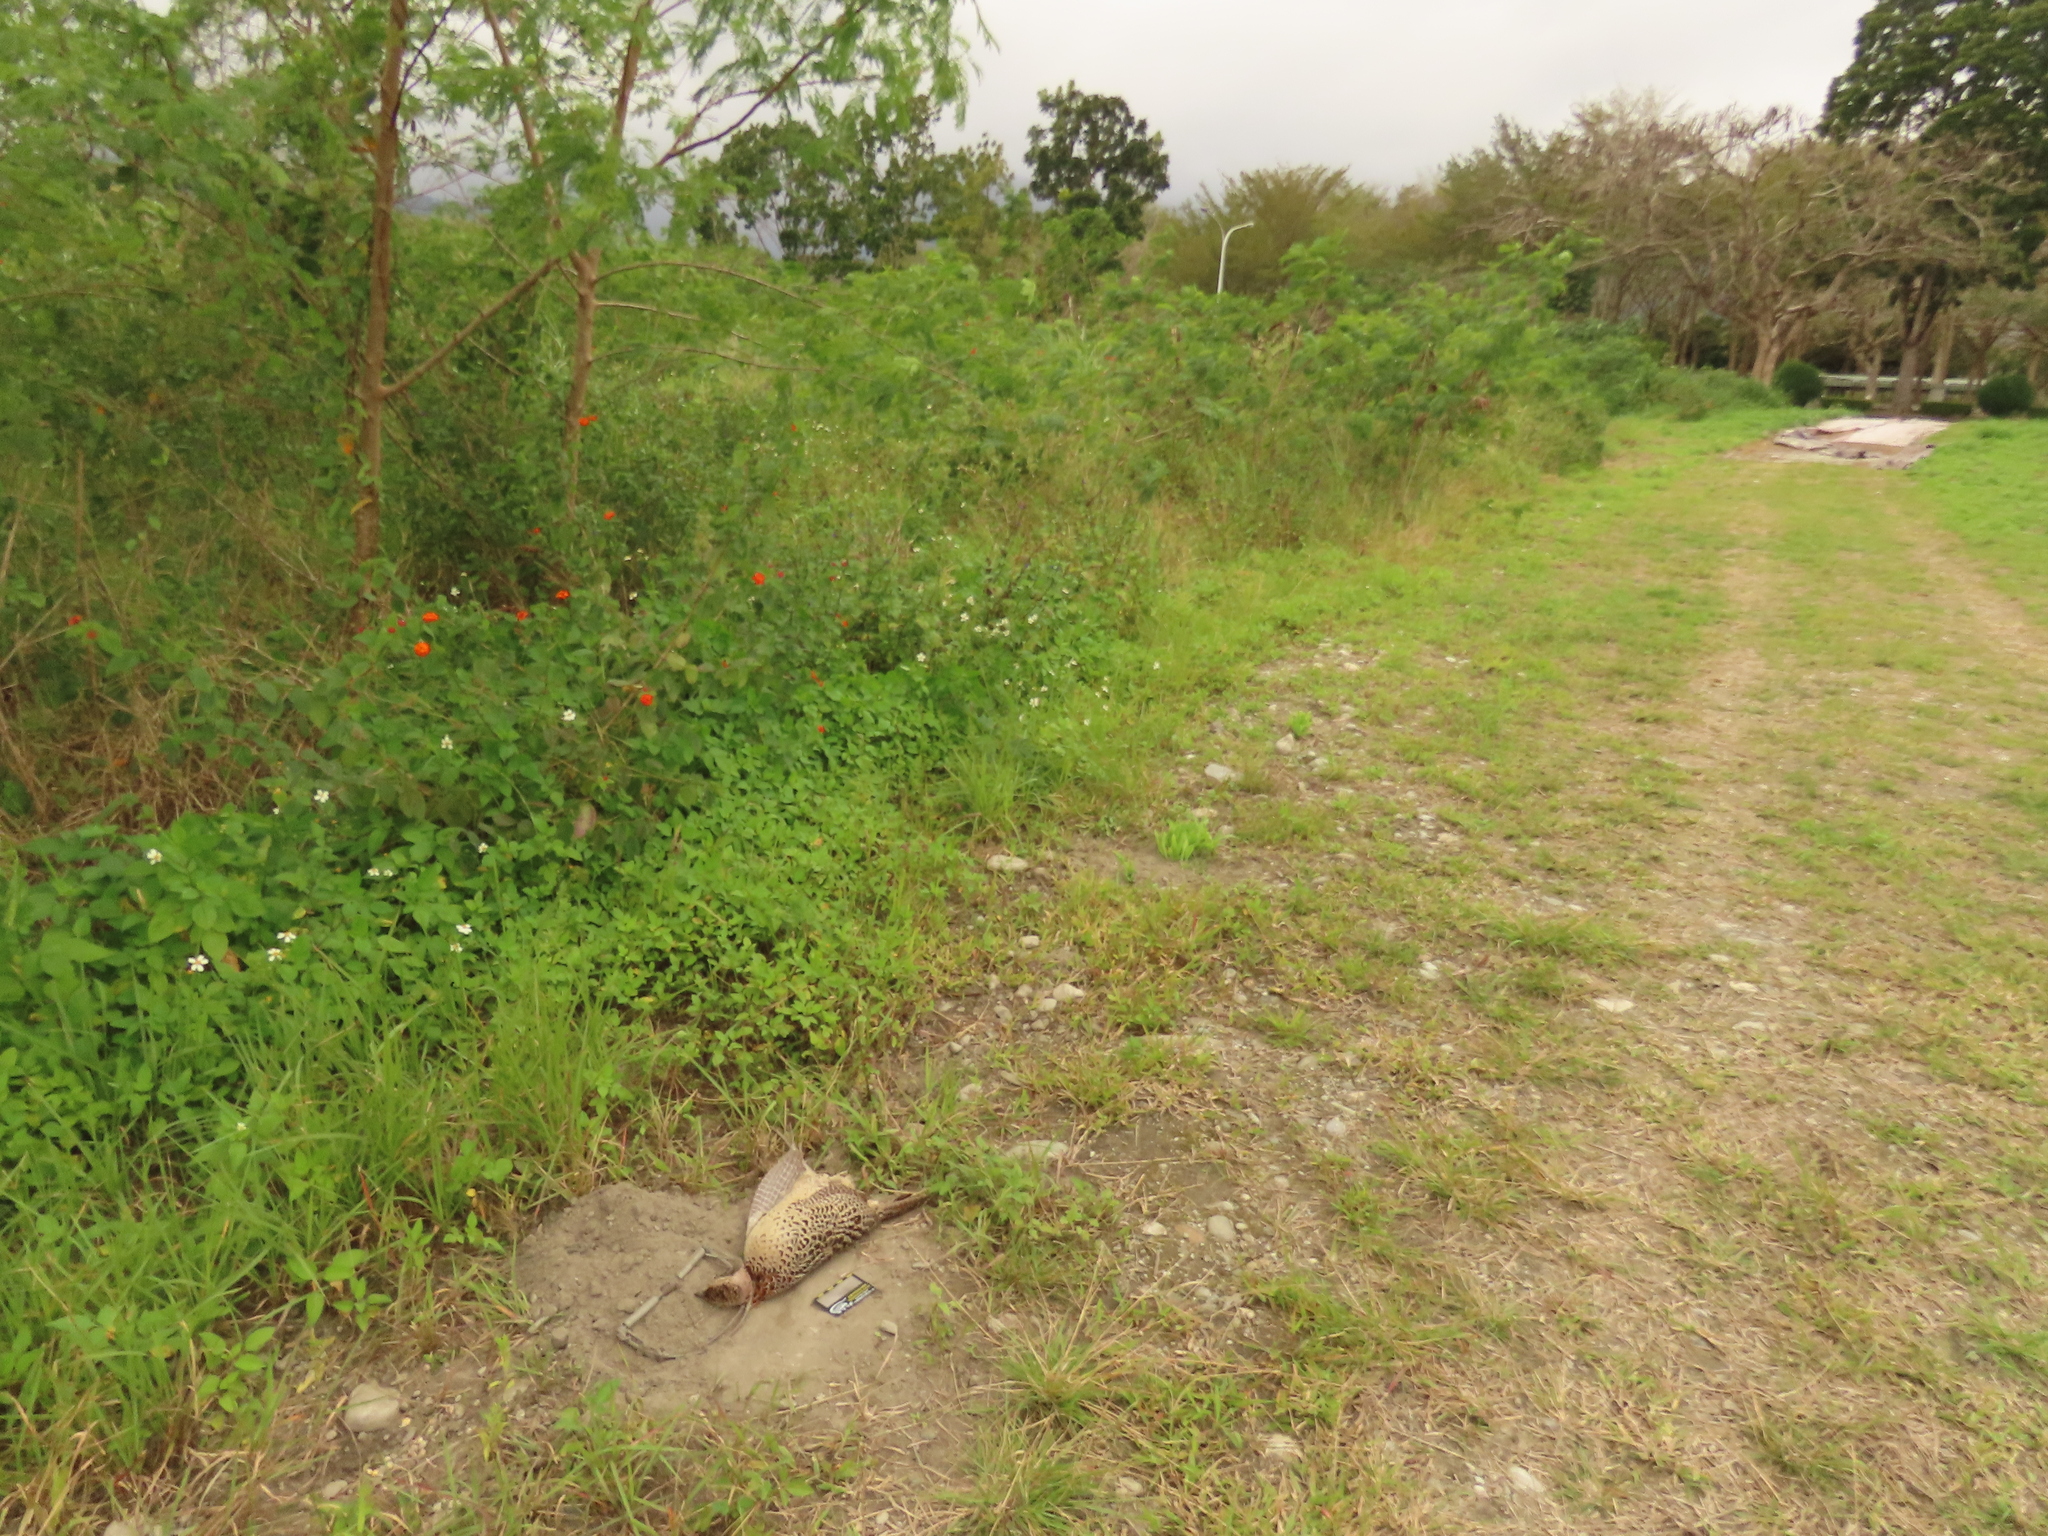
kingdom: Animalia
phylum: Chordata
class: Aves
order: Galliformes
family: Phasianidae
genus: Phasianus
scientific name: Phasianus colchicus
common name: Common pheasant
